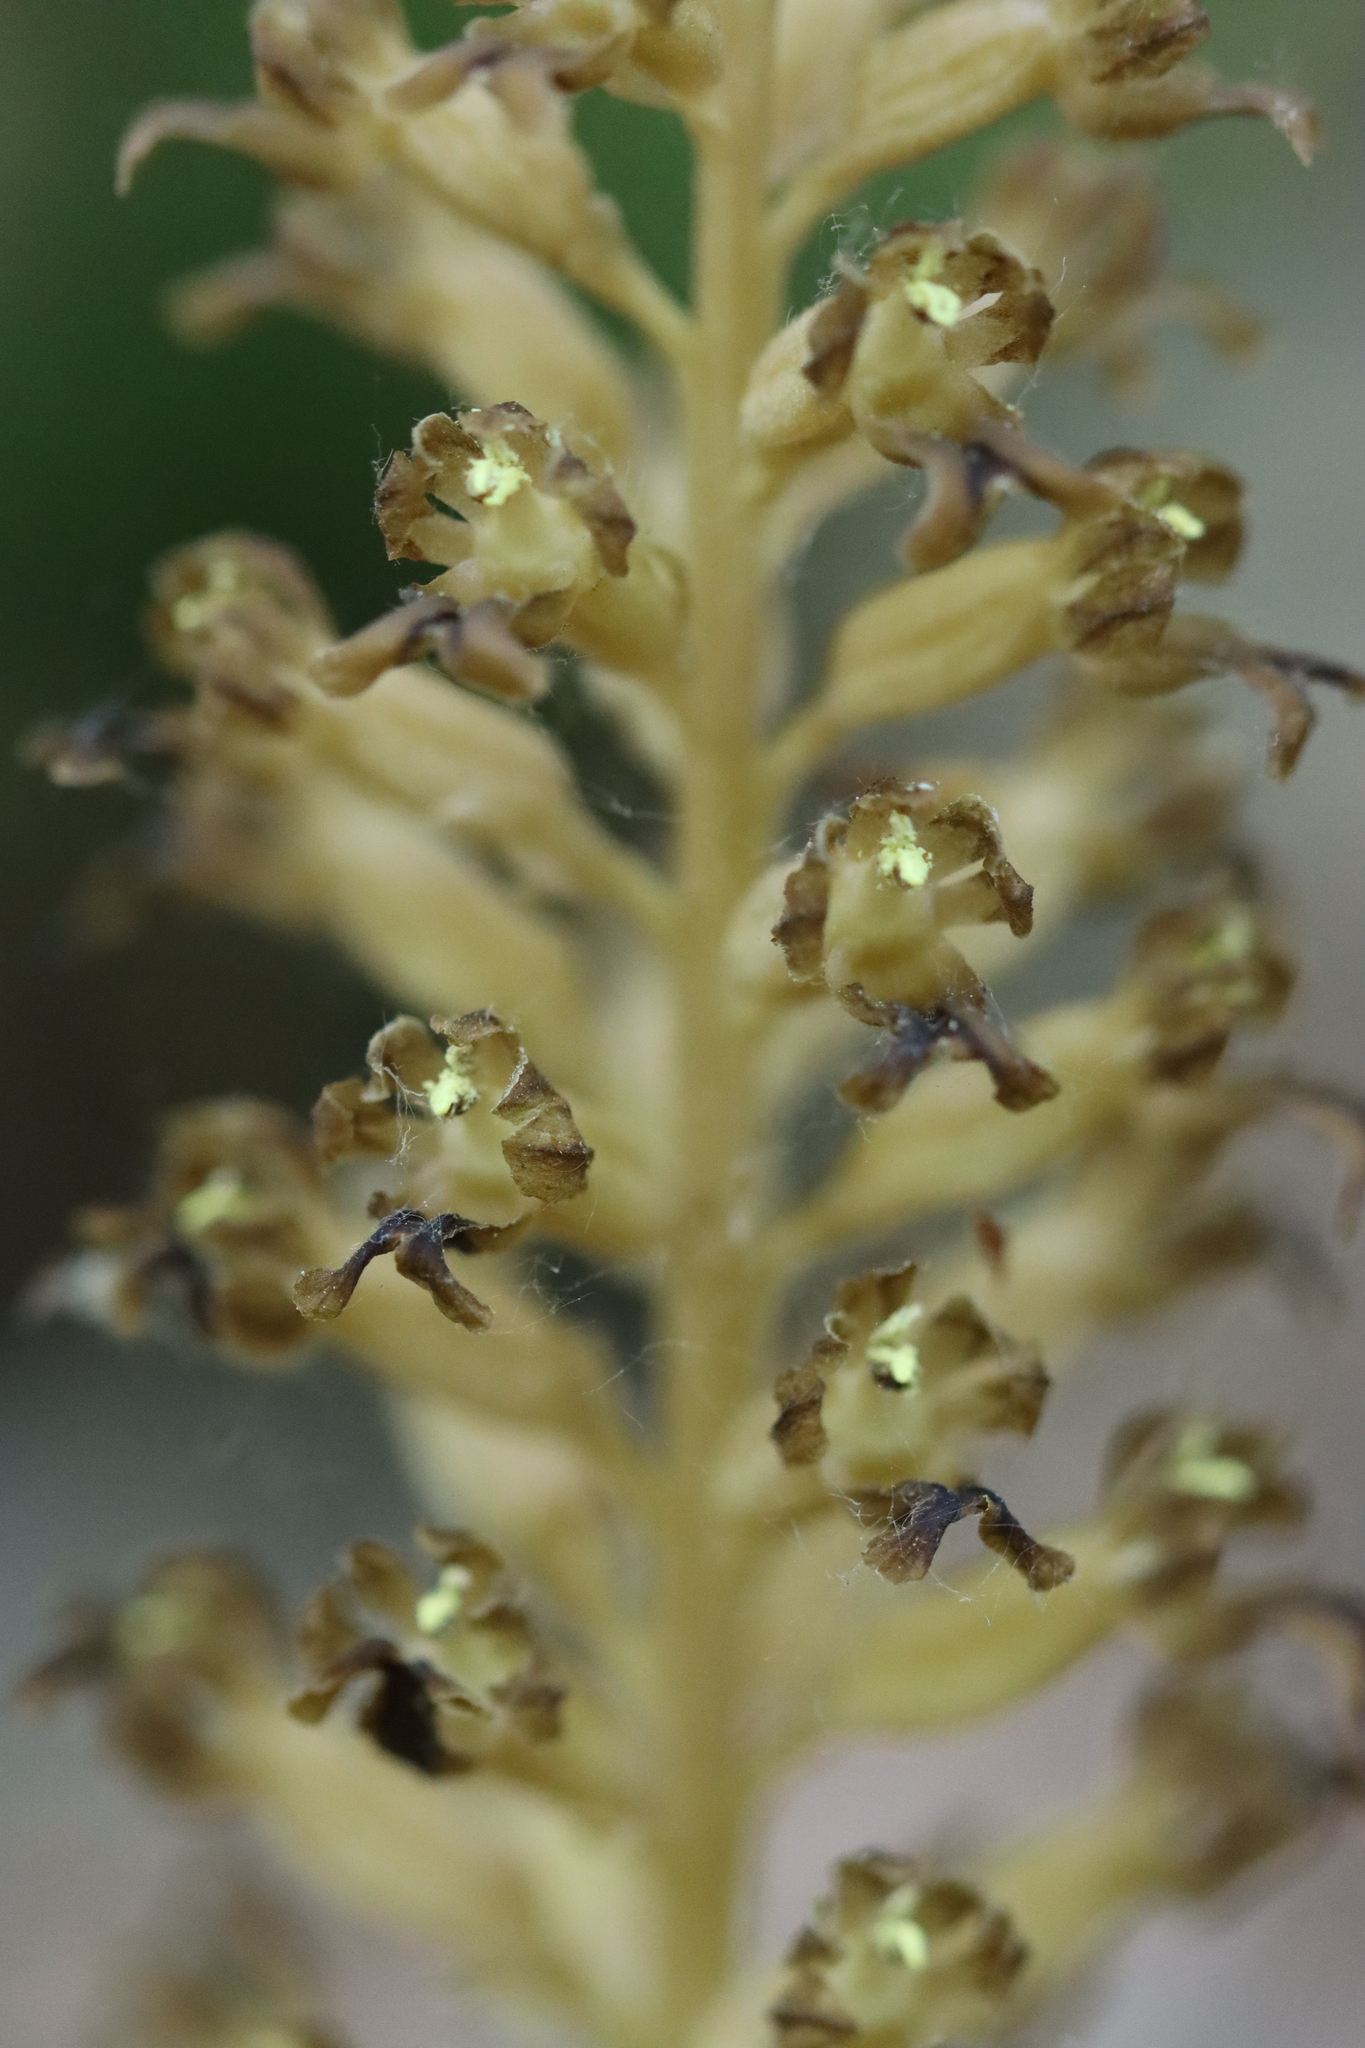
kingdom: Plantae
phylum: Tracheophyta
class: Liliopsida
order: Asparagales
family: Orchidaceae
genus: Neottia
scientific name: Neottia nidus-avis
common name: Bird's-nest orchid
